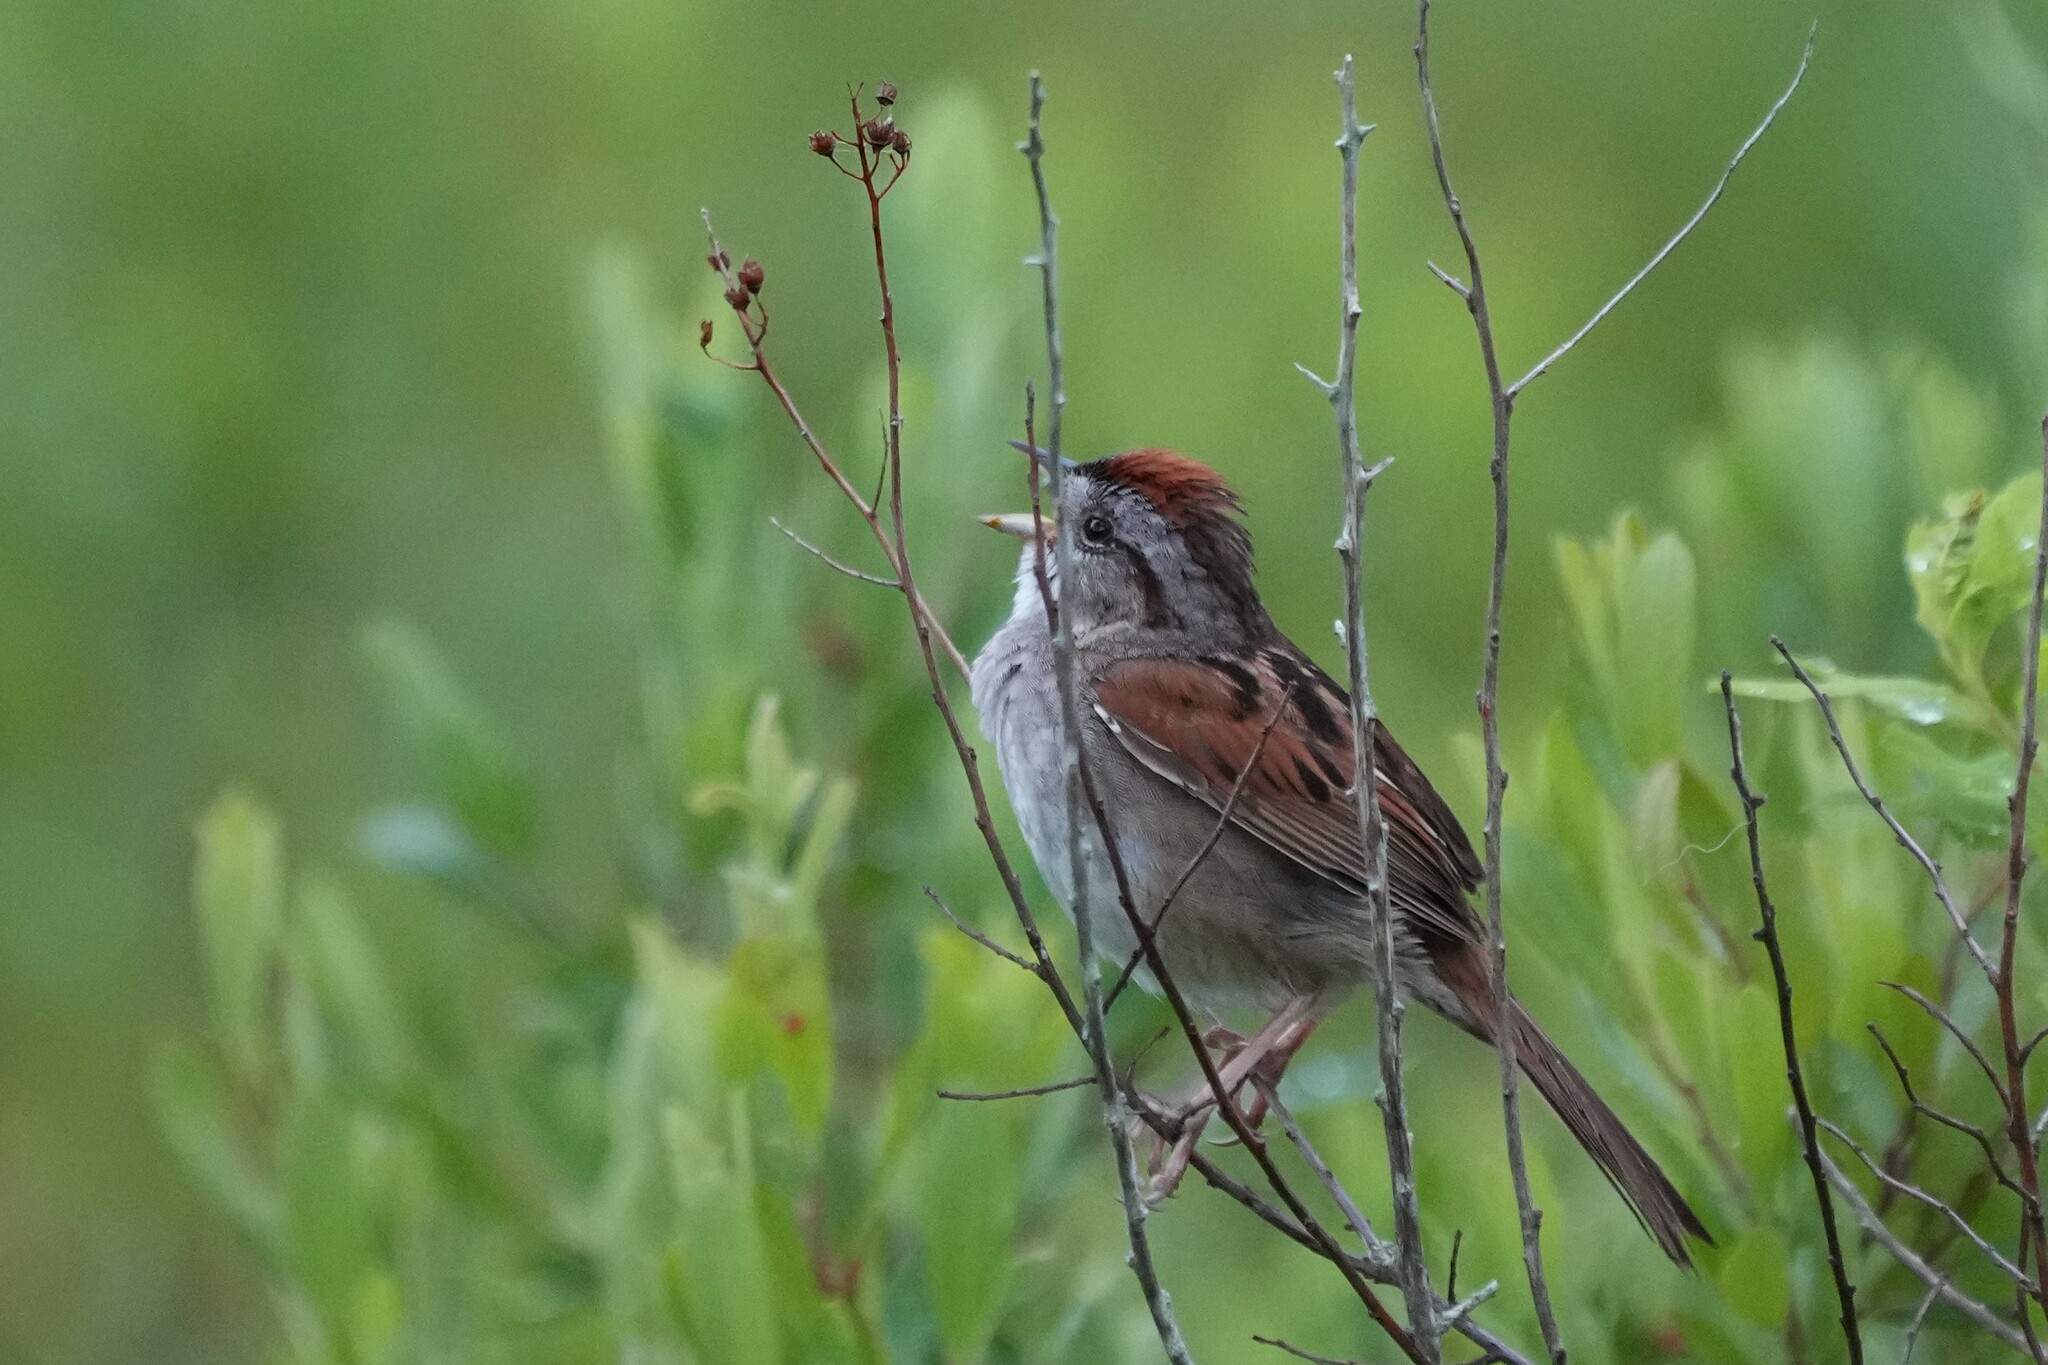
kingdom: Animalia
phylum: Chordata
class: Aves
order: Passeriformes
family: Passerellidae
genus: Melospiza
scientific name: Melospiza georgiana
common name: Swamp sparrow
